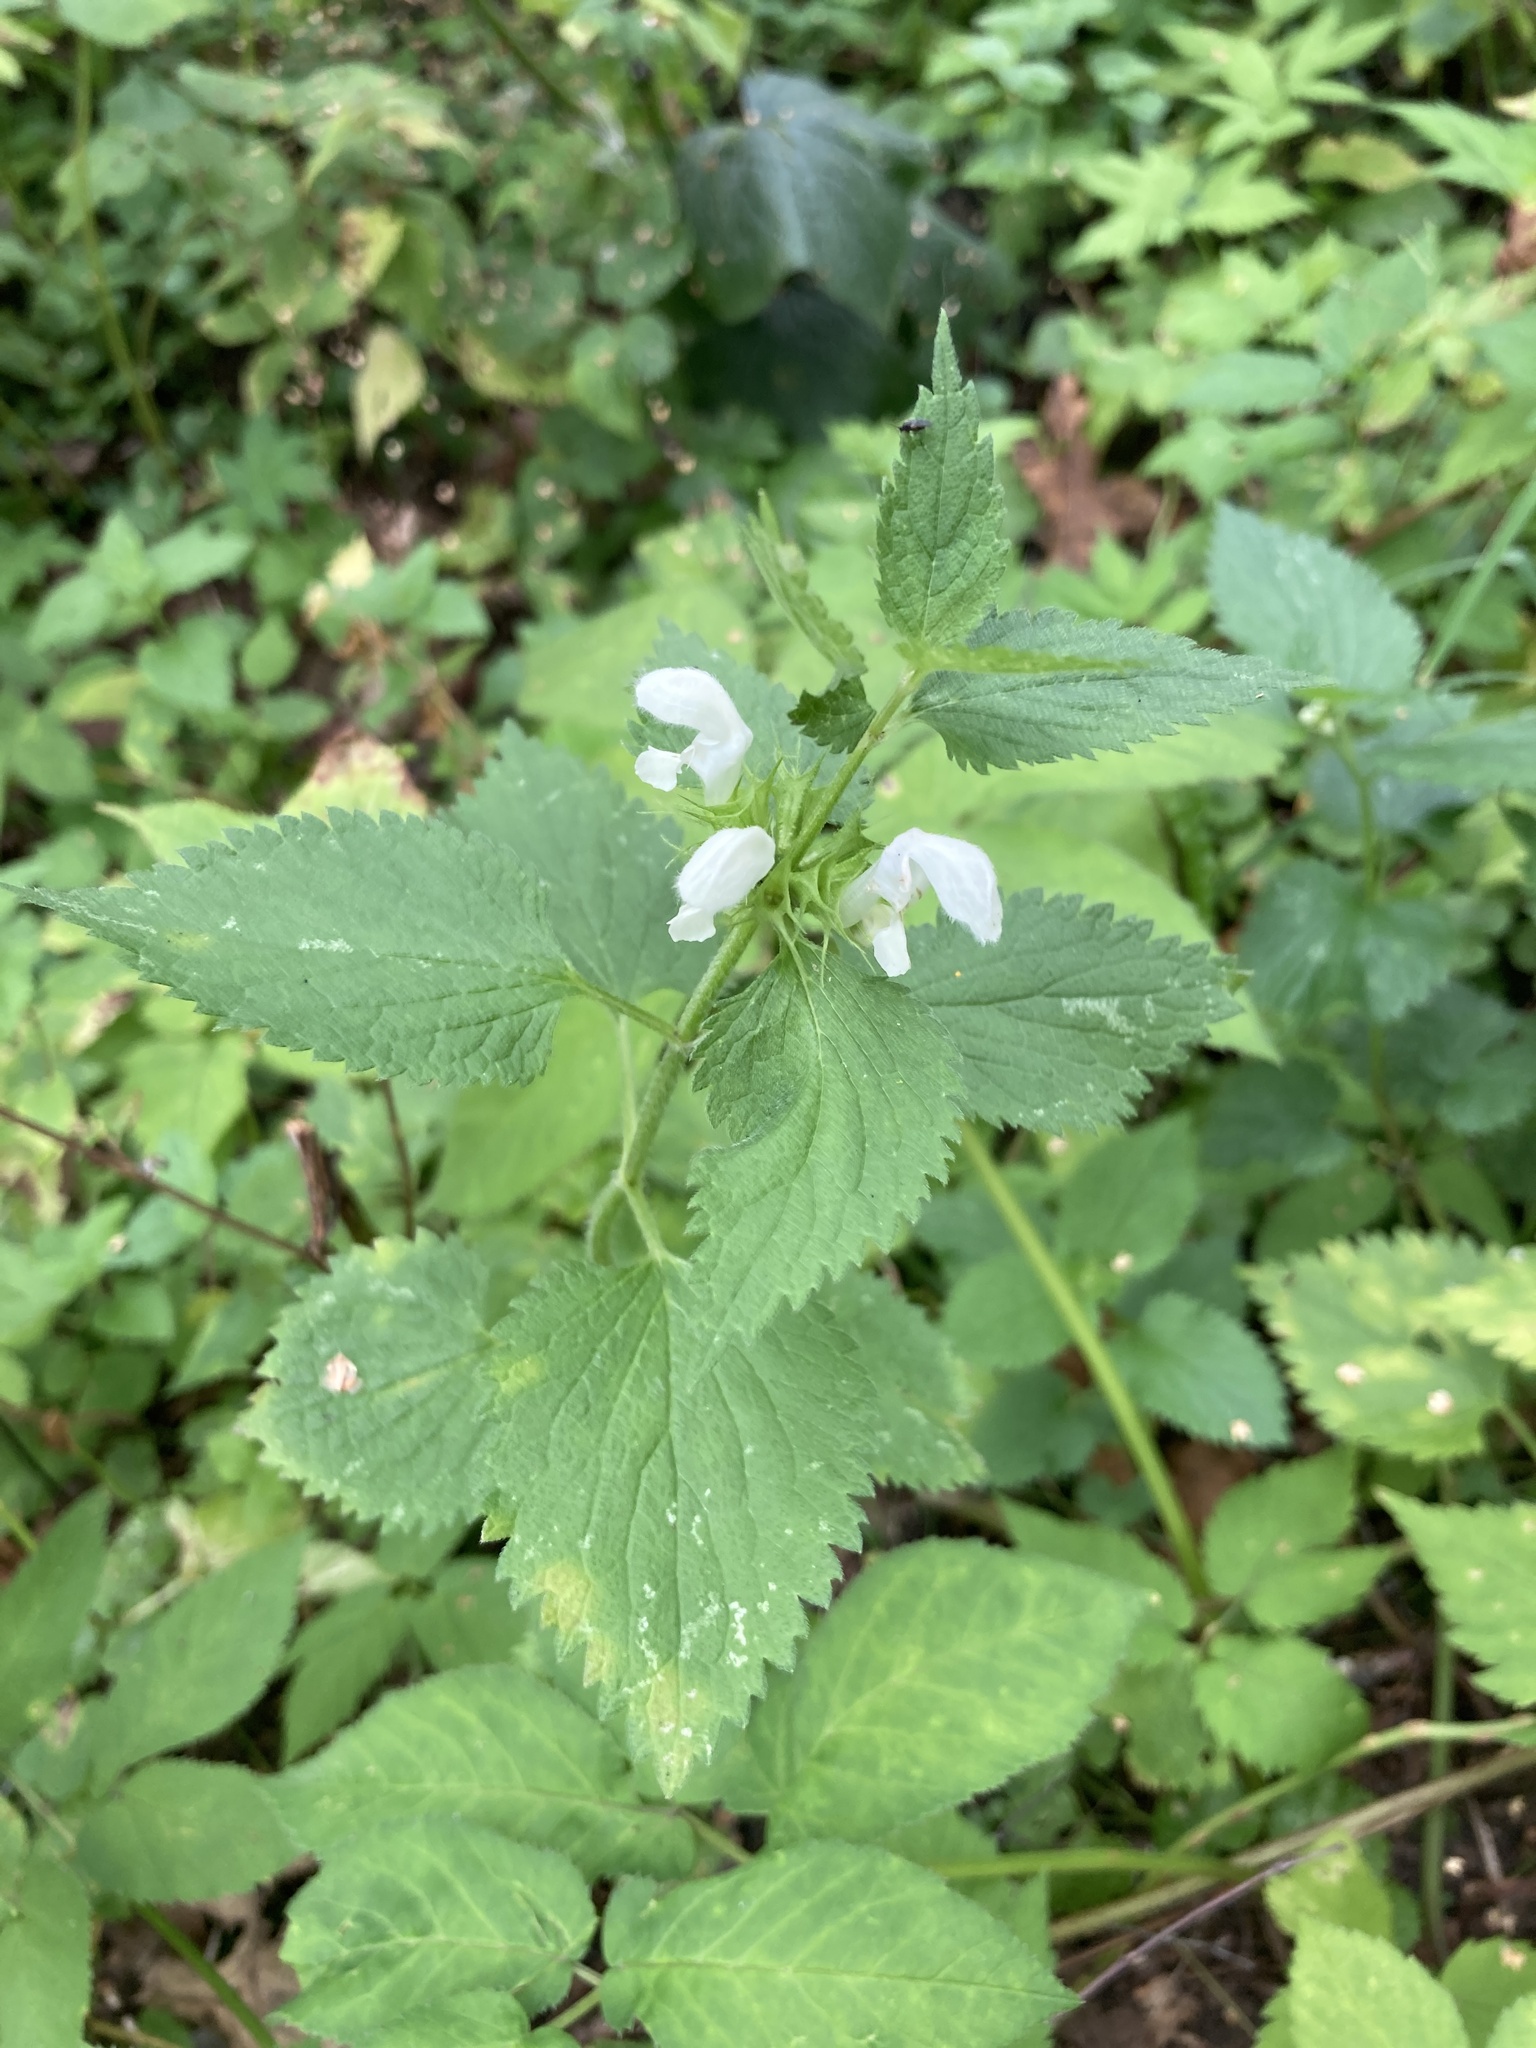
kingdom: Plantae
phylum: Tracheophyta
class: Magnoliopsida
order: Lamiales
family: Lamiaceae
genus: Lamium
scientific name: Lamium album
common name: White dead-nettle
